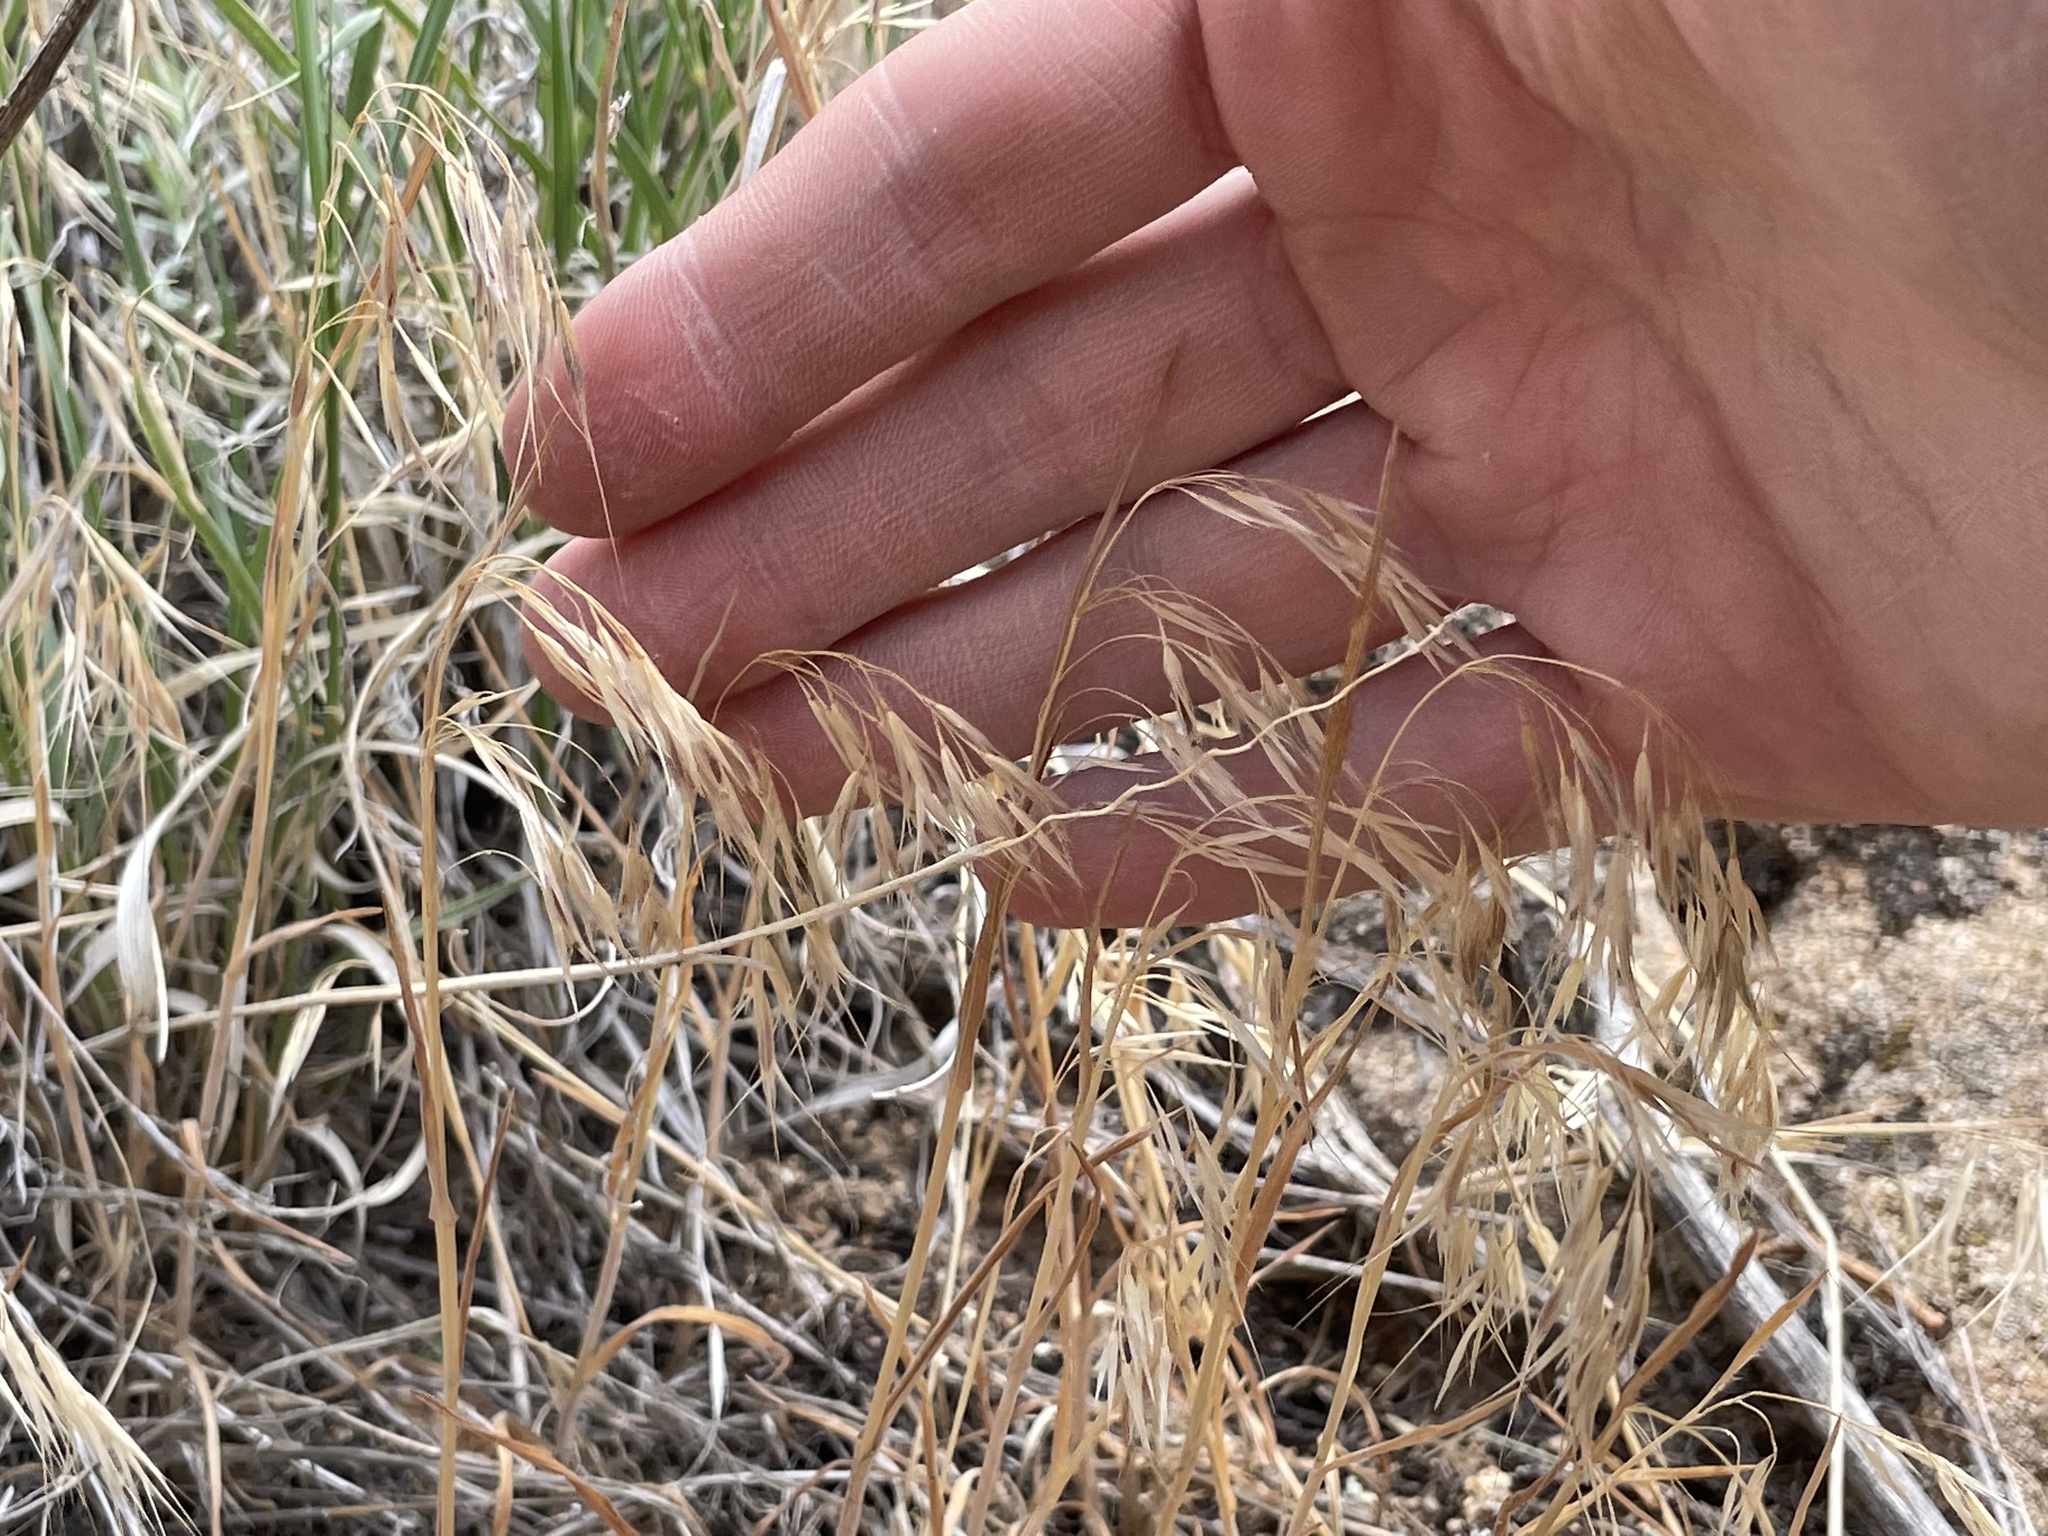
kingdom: Plantae
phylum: Tracheophyta
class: Liliopsida
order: Poales
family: Poaceae
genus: Bromus
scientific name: Bromus tectorum
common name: Cheatgrass
